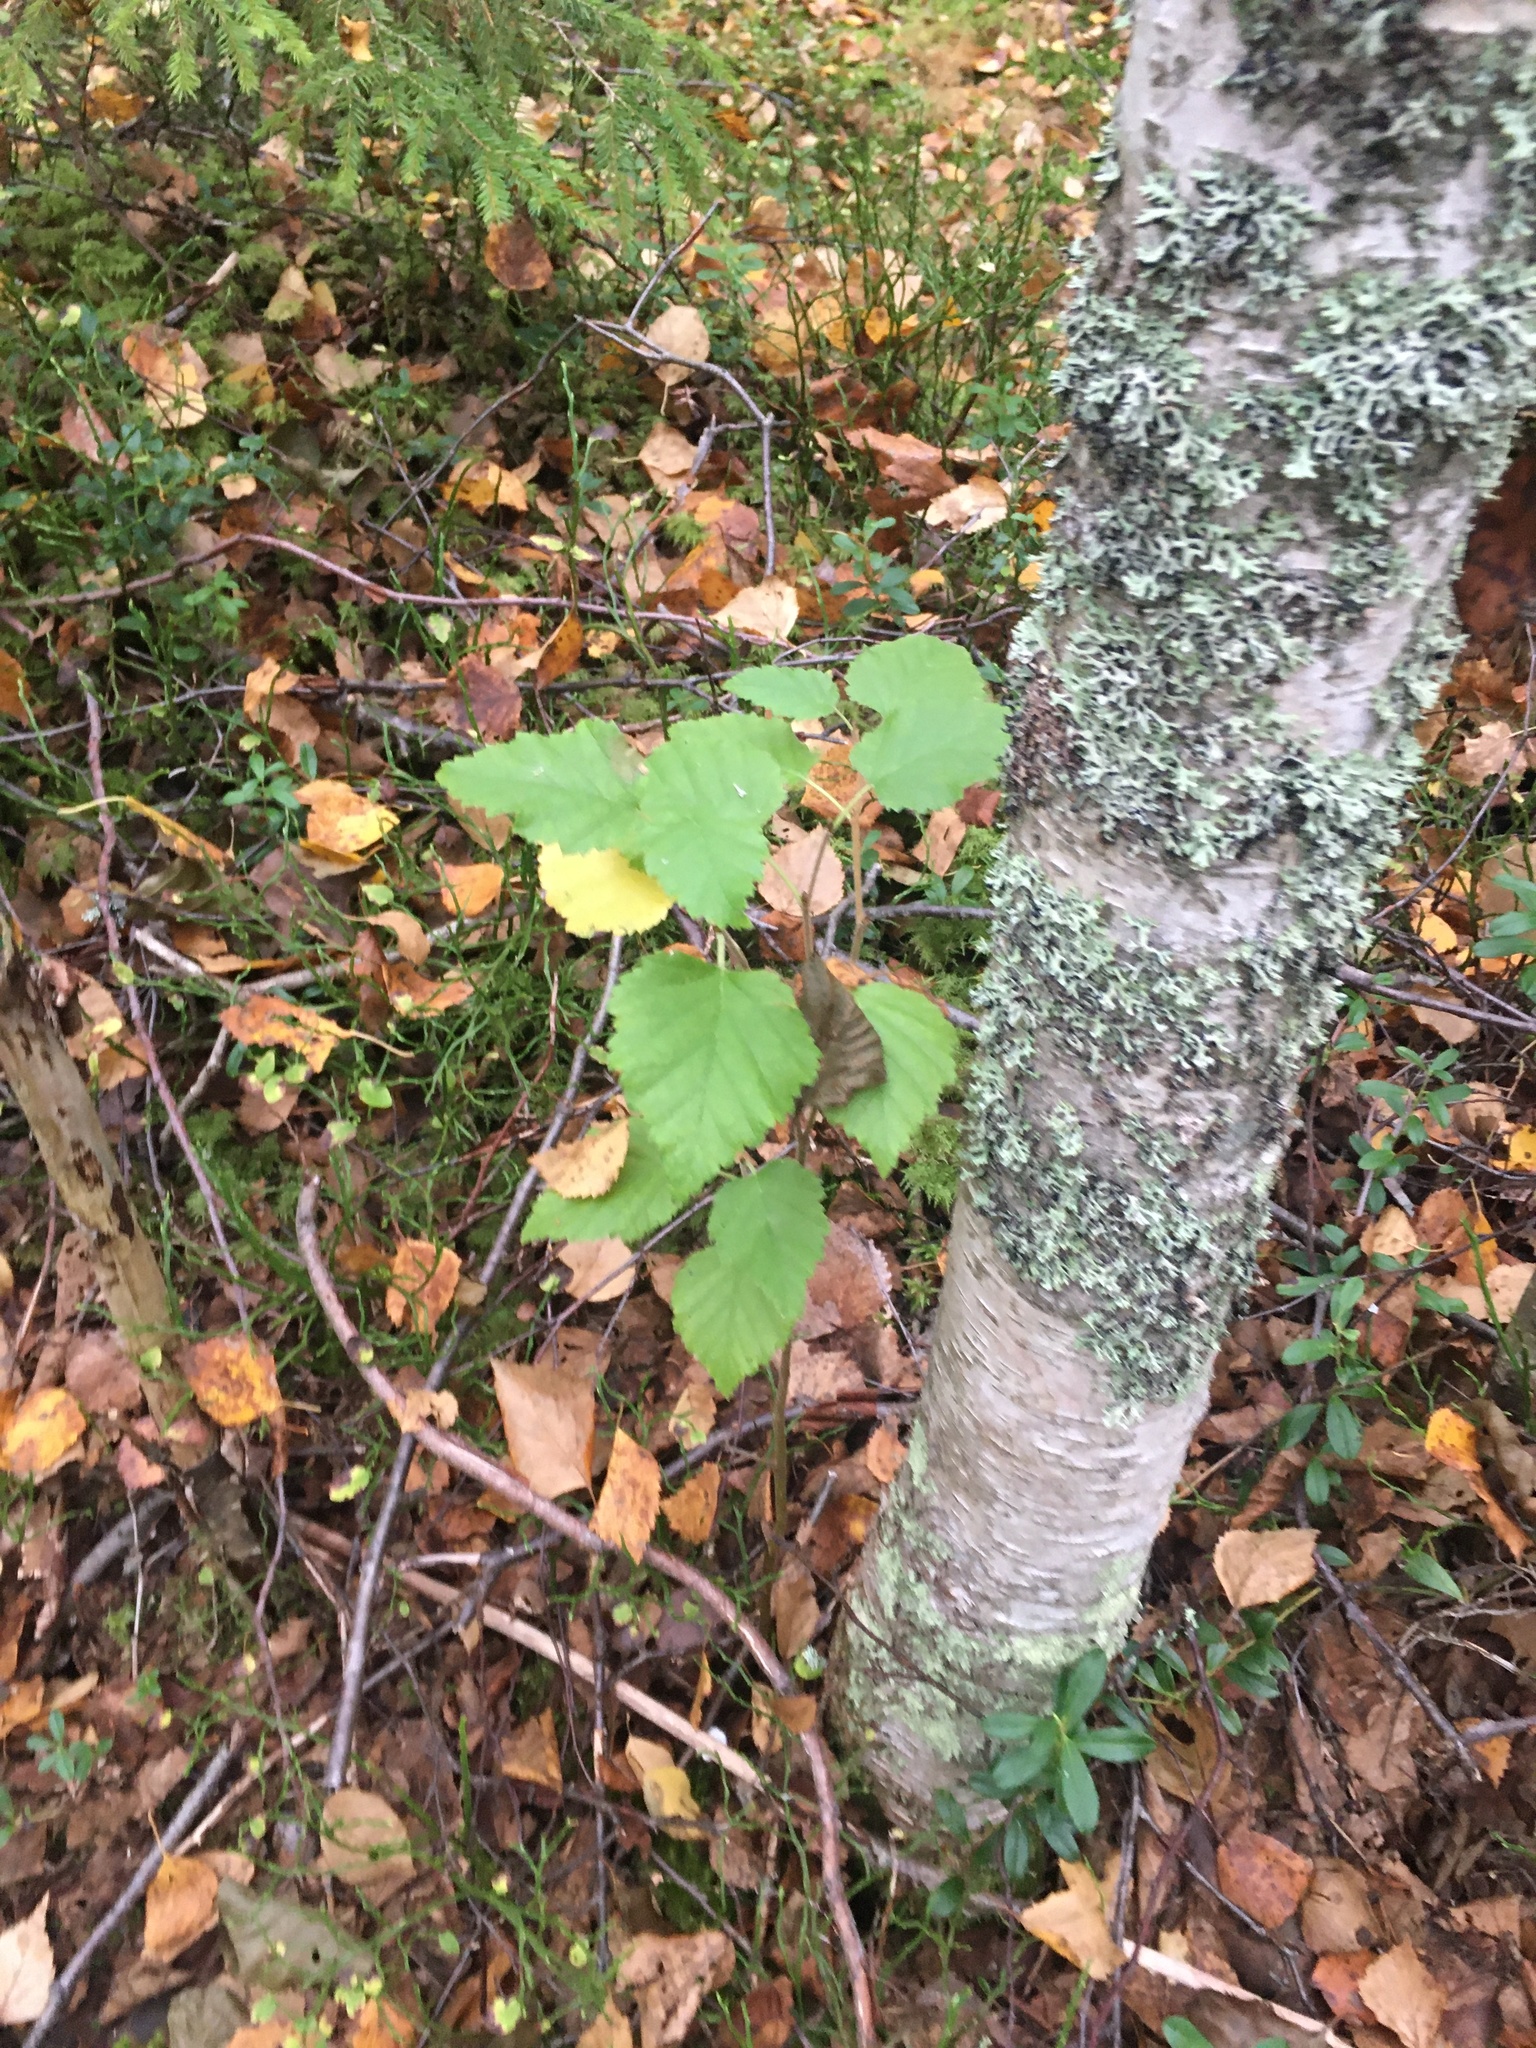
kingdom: Plantae
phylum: Tracheophyta
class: Magnoliopsida
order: Fagales
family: Betulaceae
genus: Betula
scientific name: Betula pubescens
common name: Downy birch
